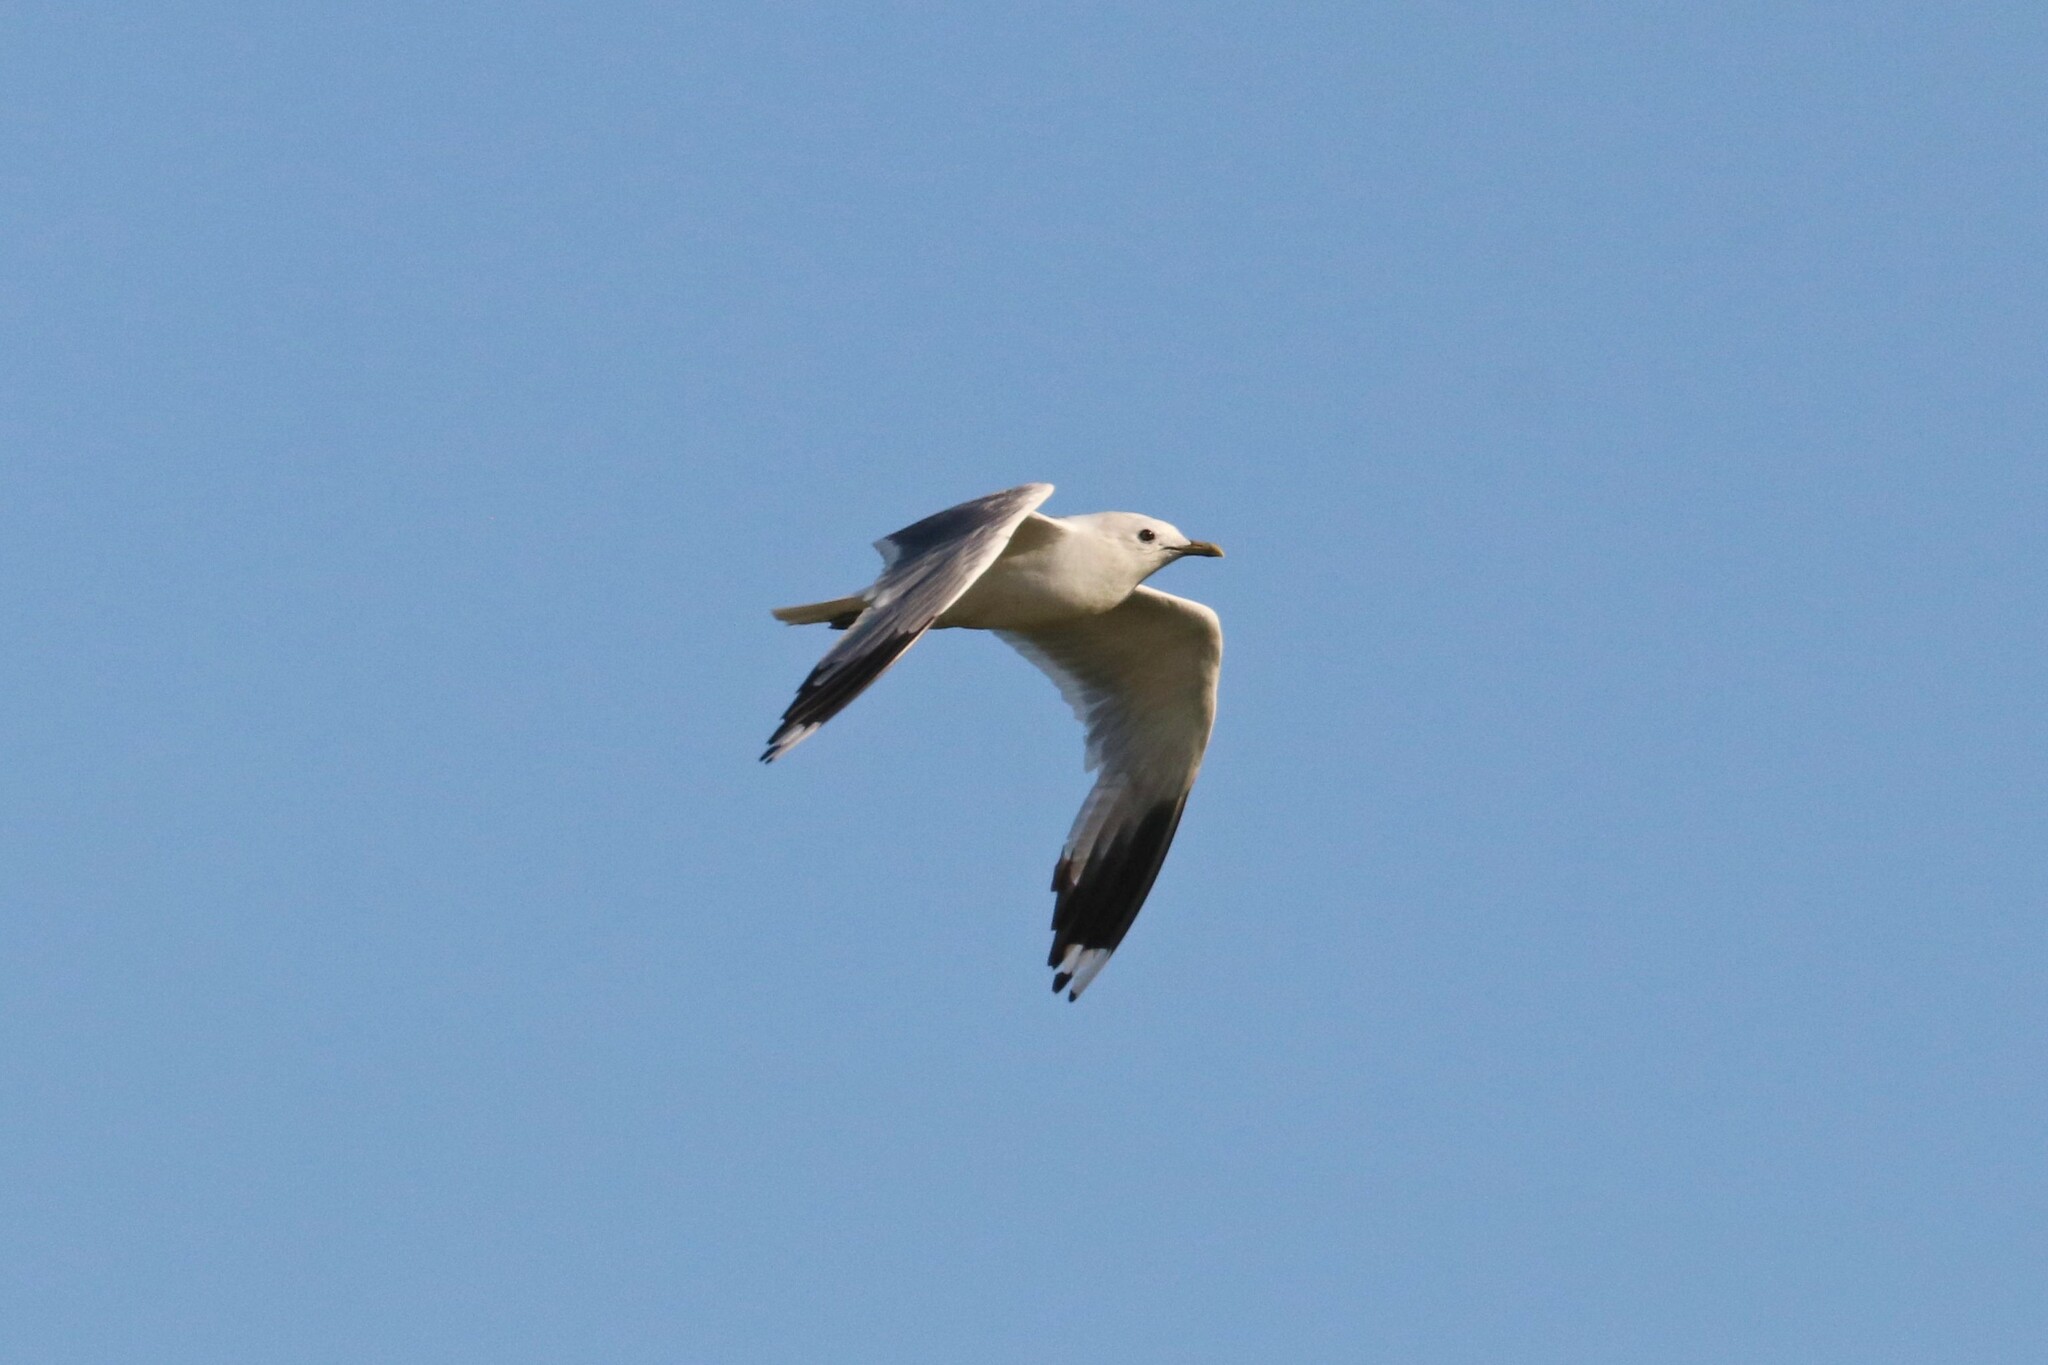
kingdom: Animalia
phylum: Chordata
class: Aves
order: Charadriiformes
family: Laridae
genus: Larus
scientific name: Larus canus
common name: Mew gull
